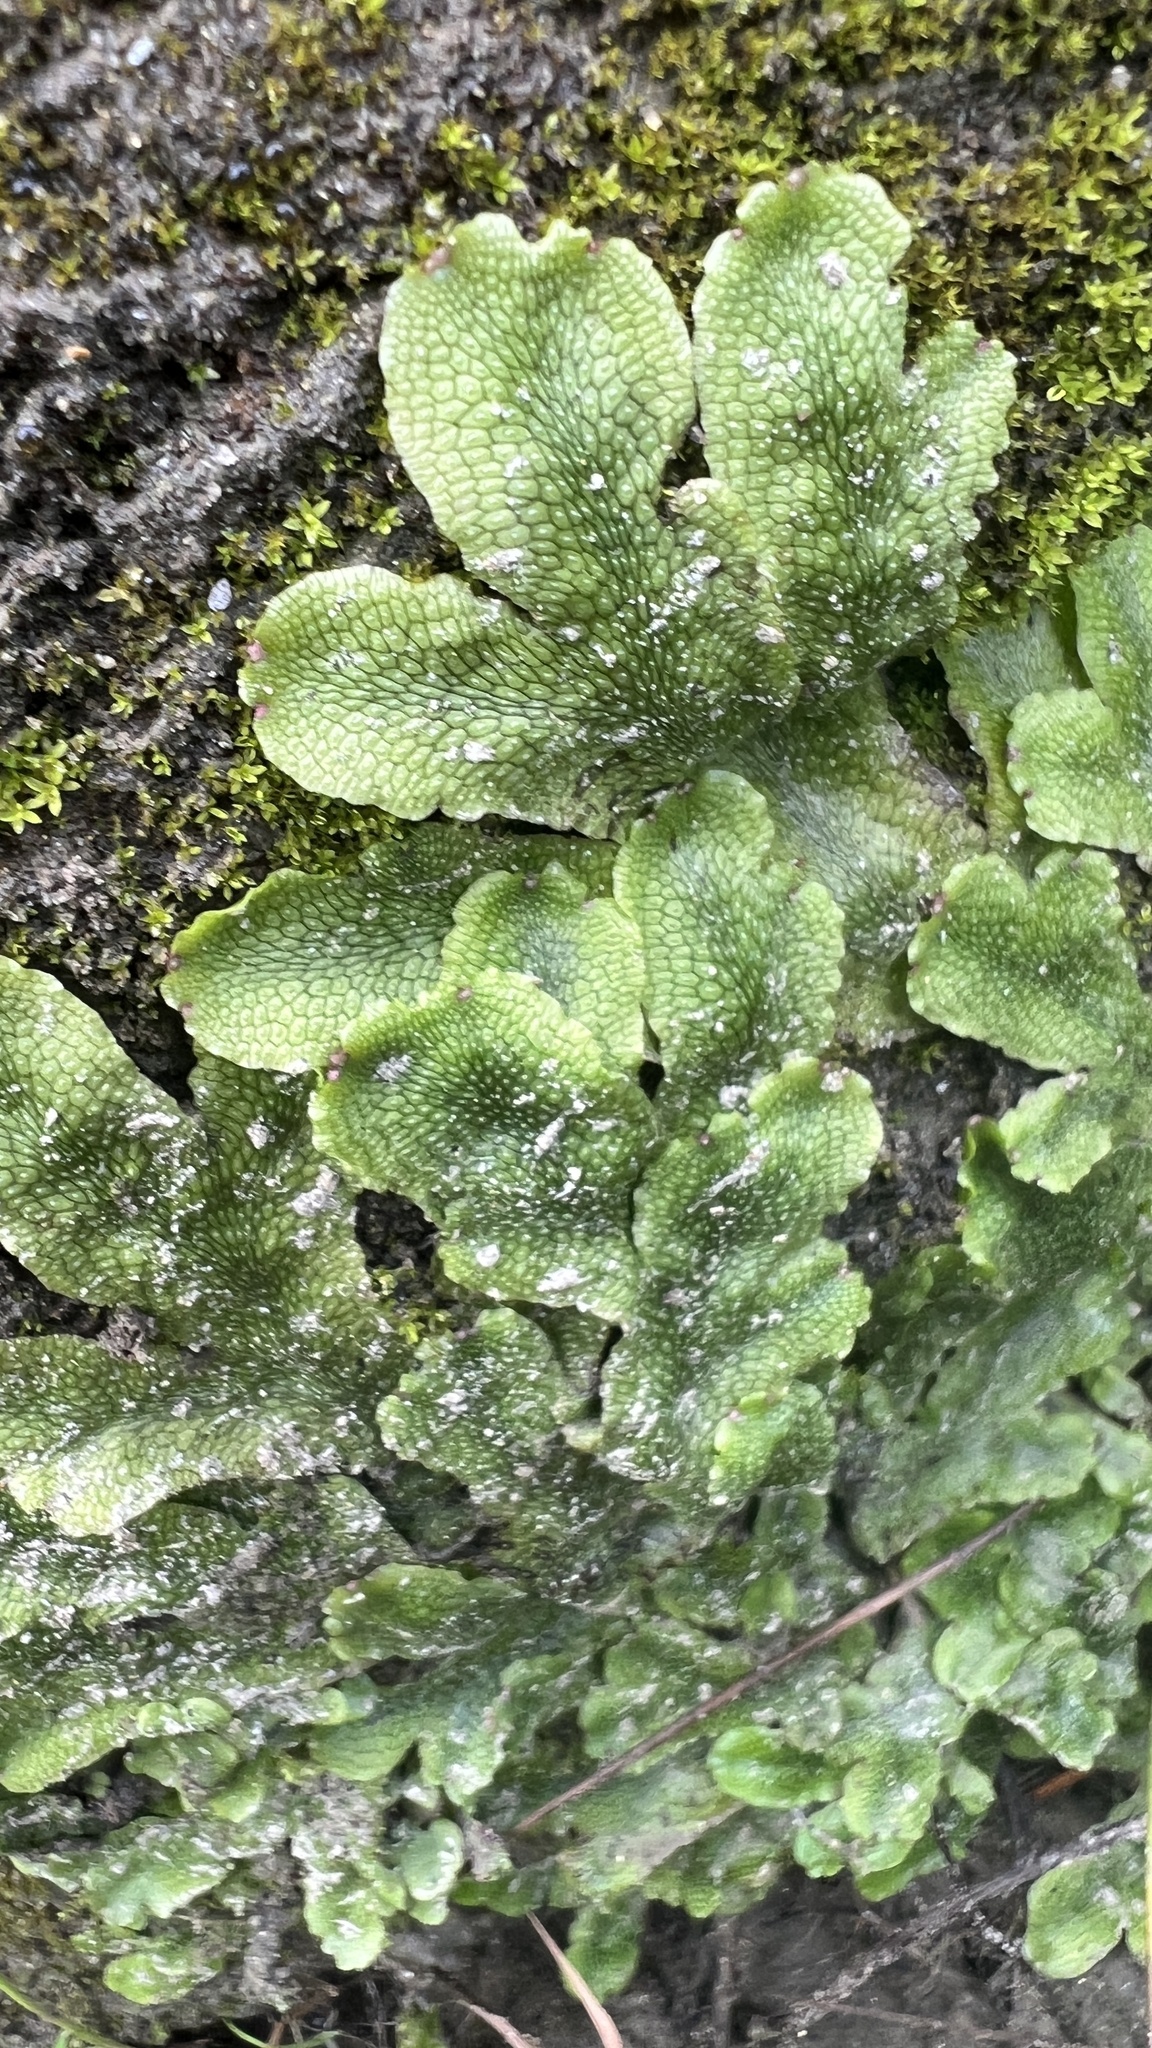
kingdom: Plantae
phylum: Marchantiophyta
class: Marchantiopsida
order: Marchantiales
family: Conocephalaceae
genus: Conocephalum
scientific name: Conocephalum salebrosum
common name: Cat-tongue liverwort
